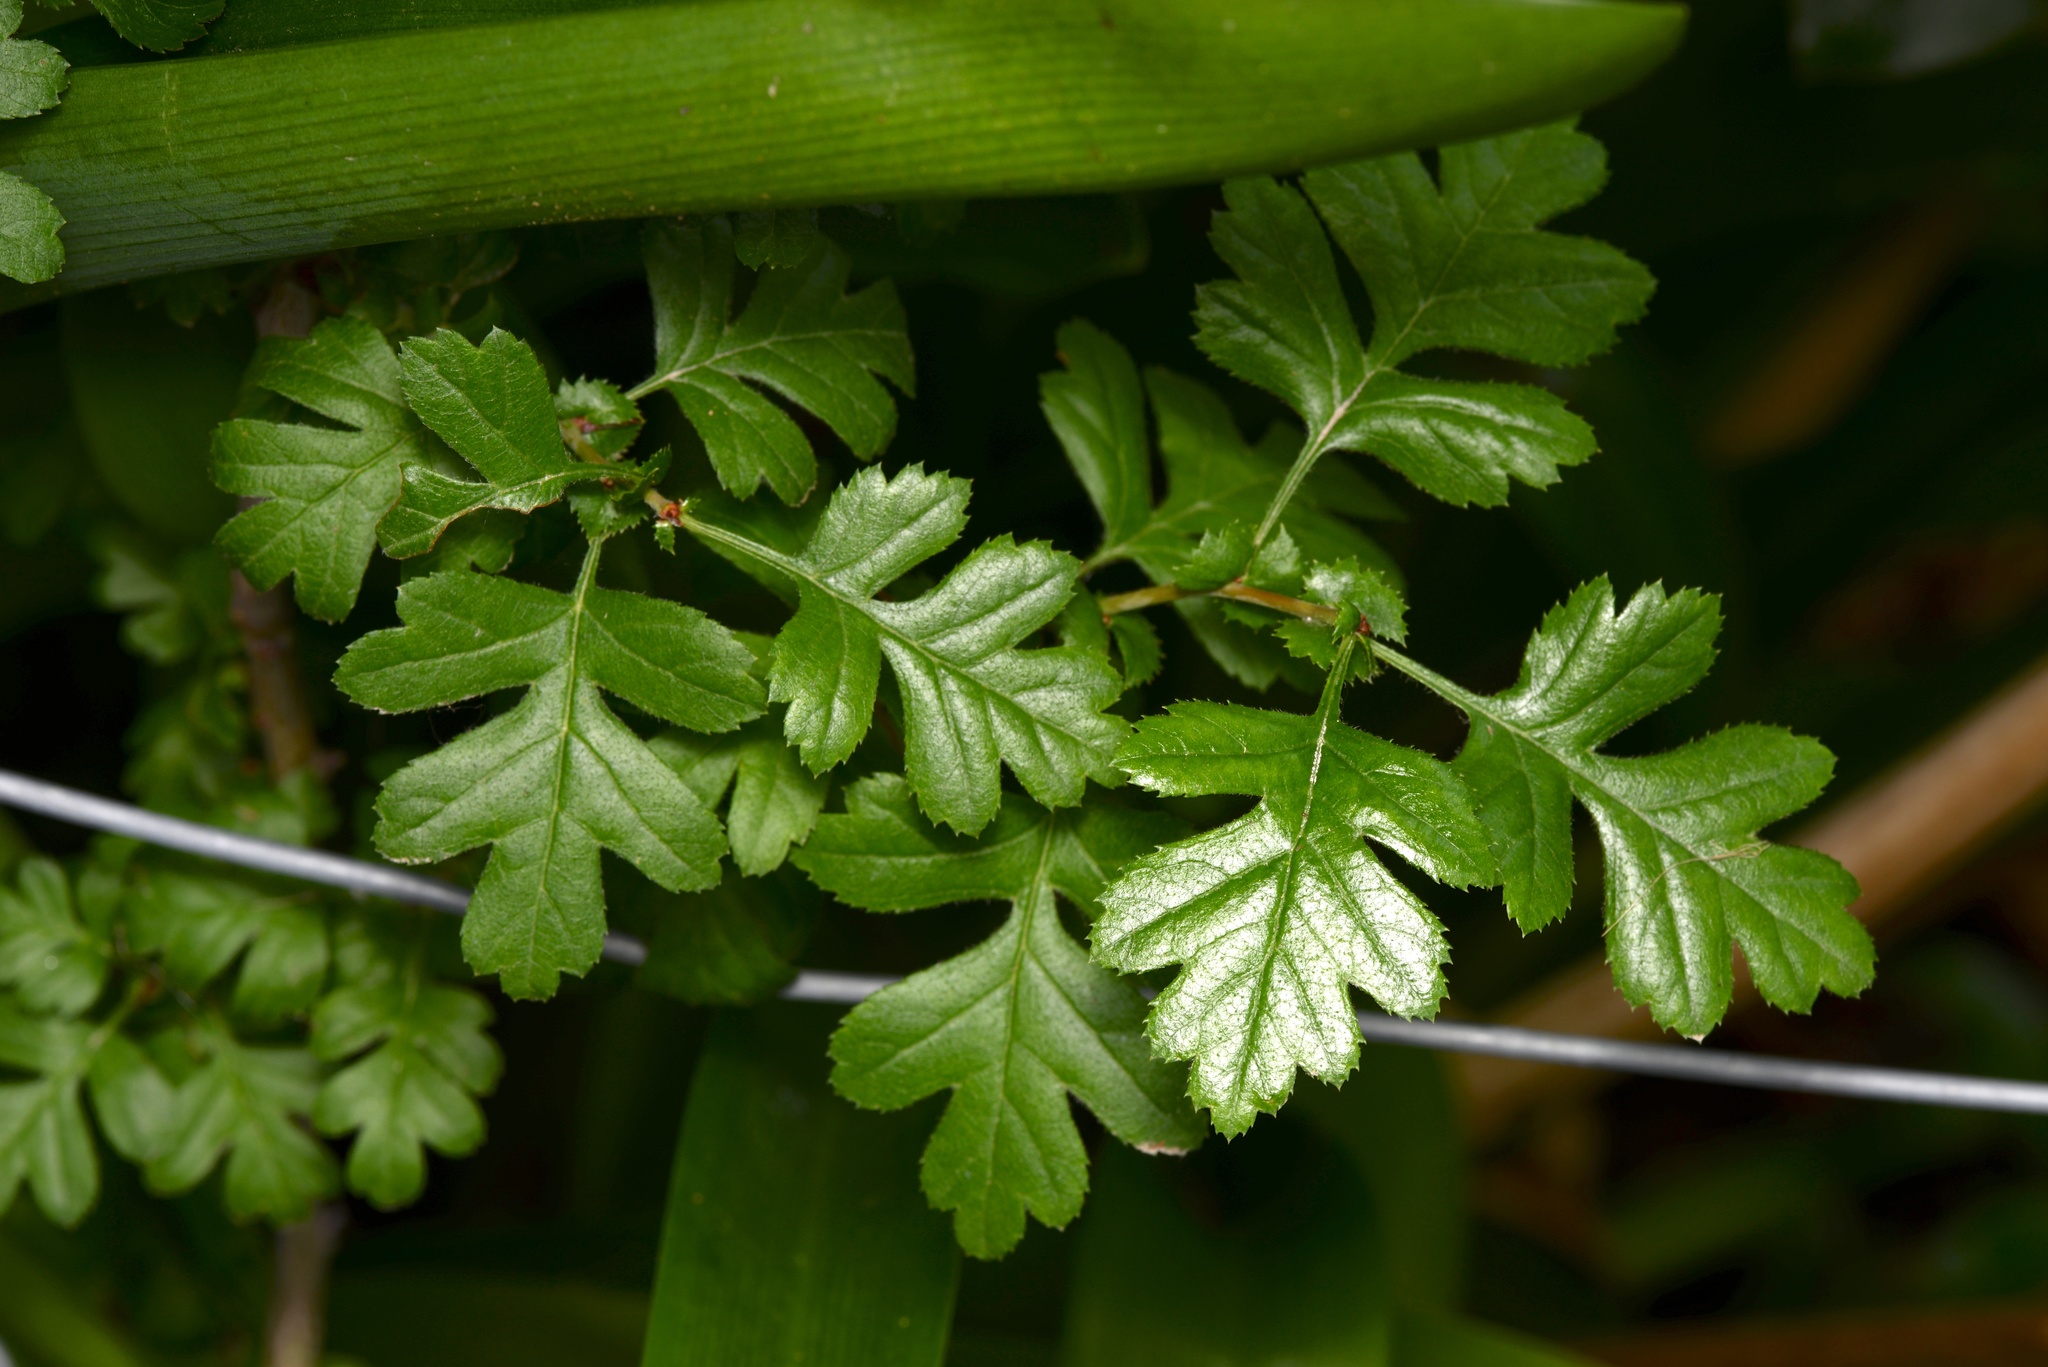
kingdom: Plantae
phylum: Tracheophyta
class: Magnoliopsida
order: Rosales
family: Rosaceae
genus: Crataegus
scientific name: Crataegus monogyna
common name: Hawthorn
